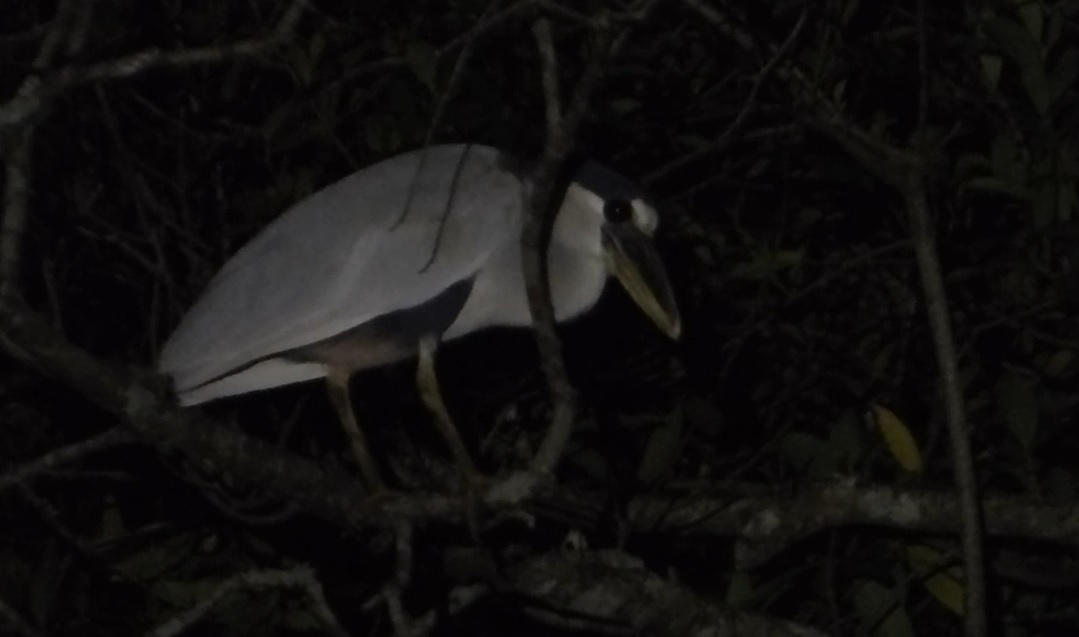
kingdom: Animalia
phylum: Chordata
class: Aves
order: Pelecaniformes
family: Ardeidae
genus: Cochlearius
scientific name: Cochlearius cochlearius
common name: Boat-billed heron
